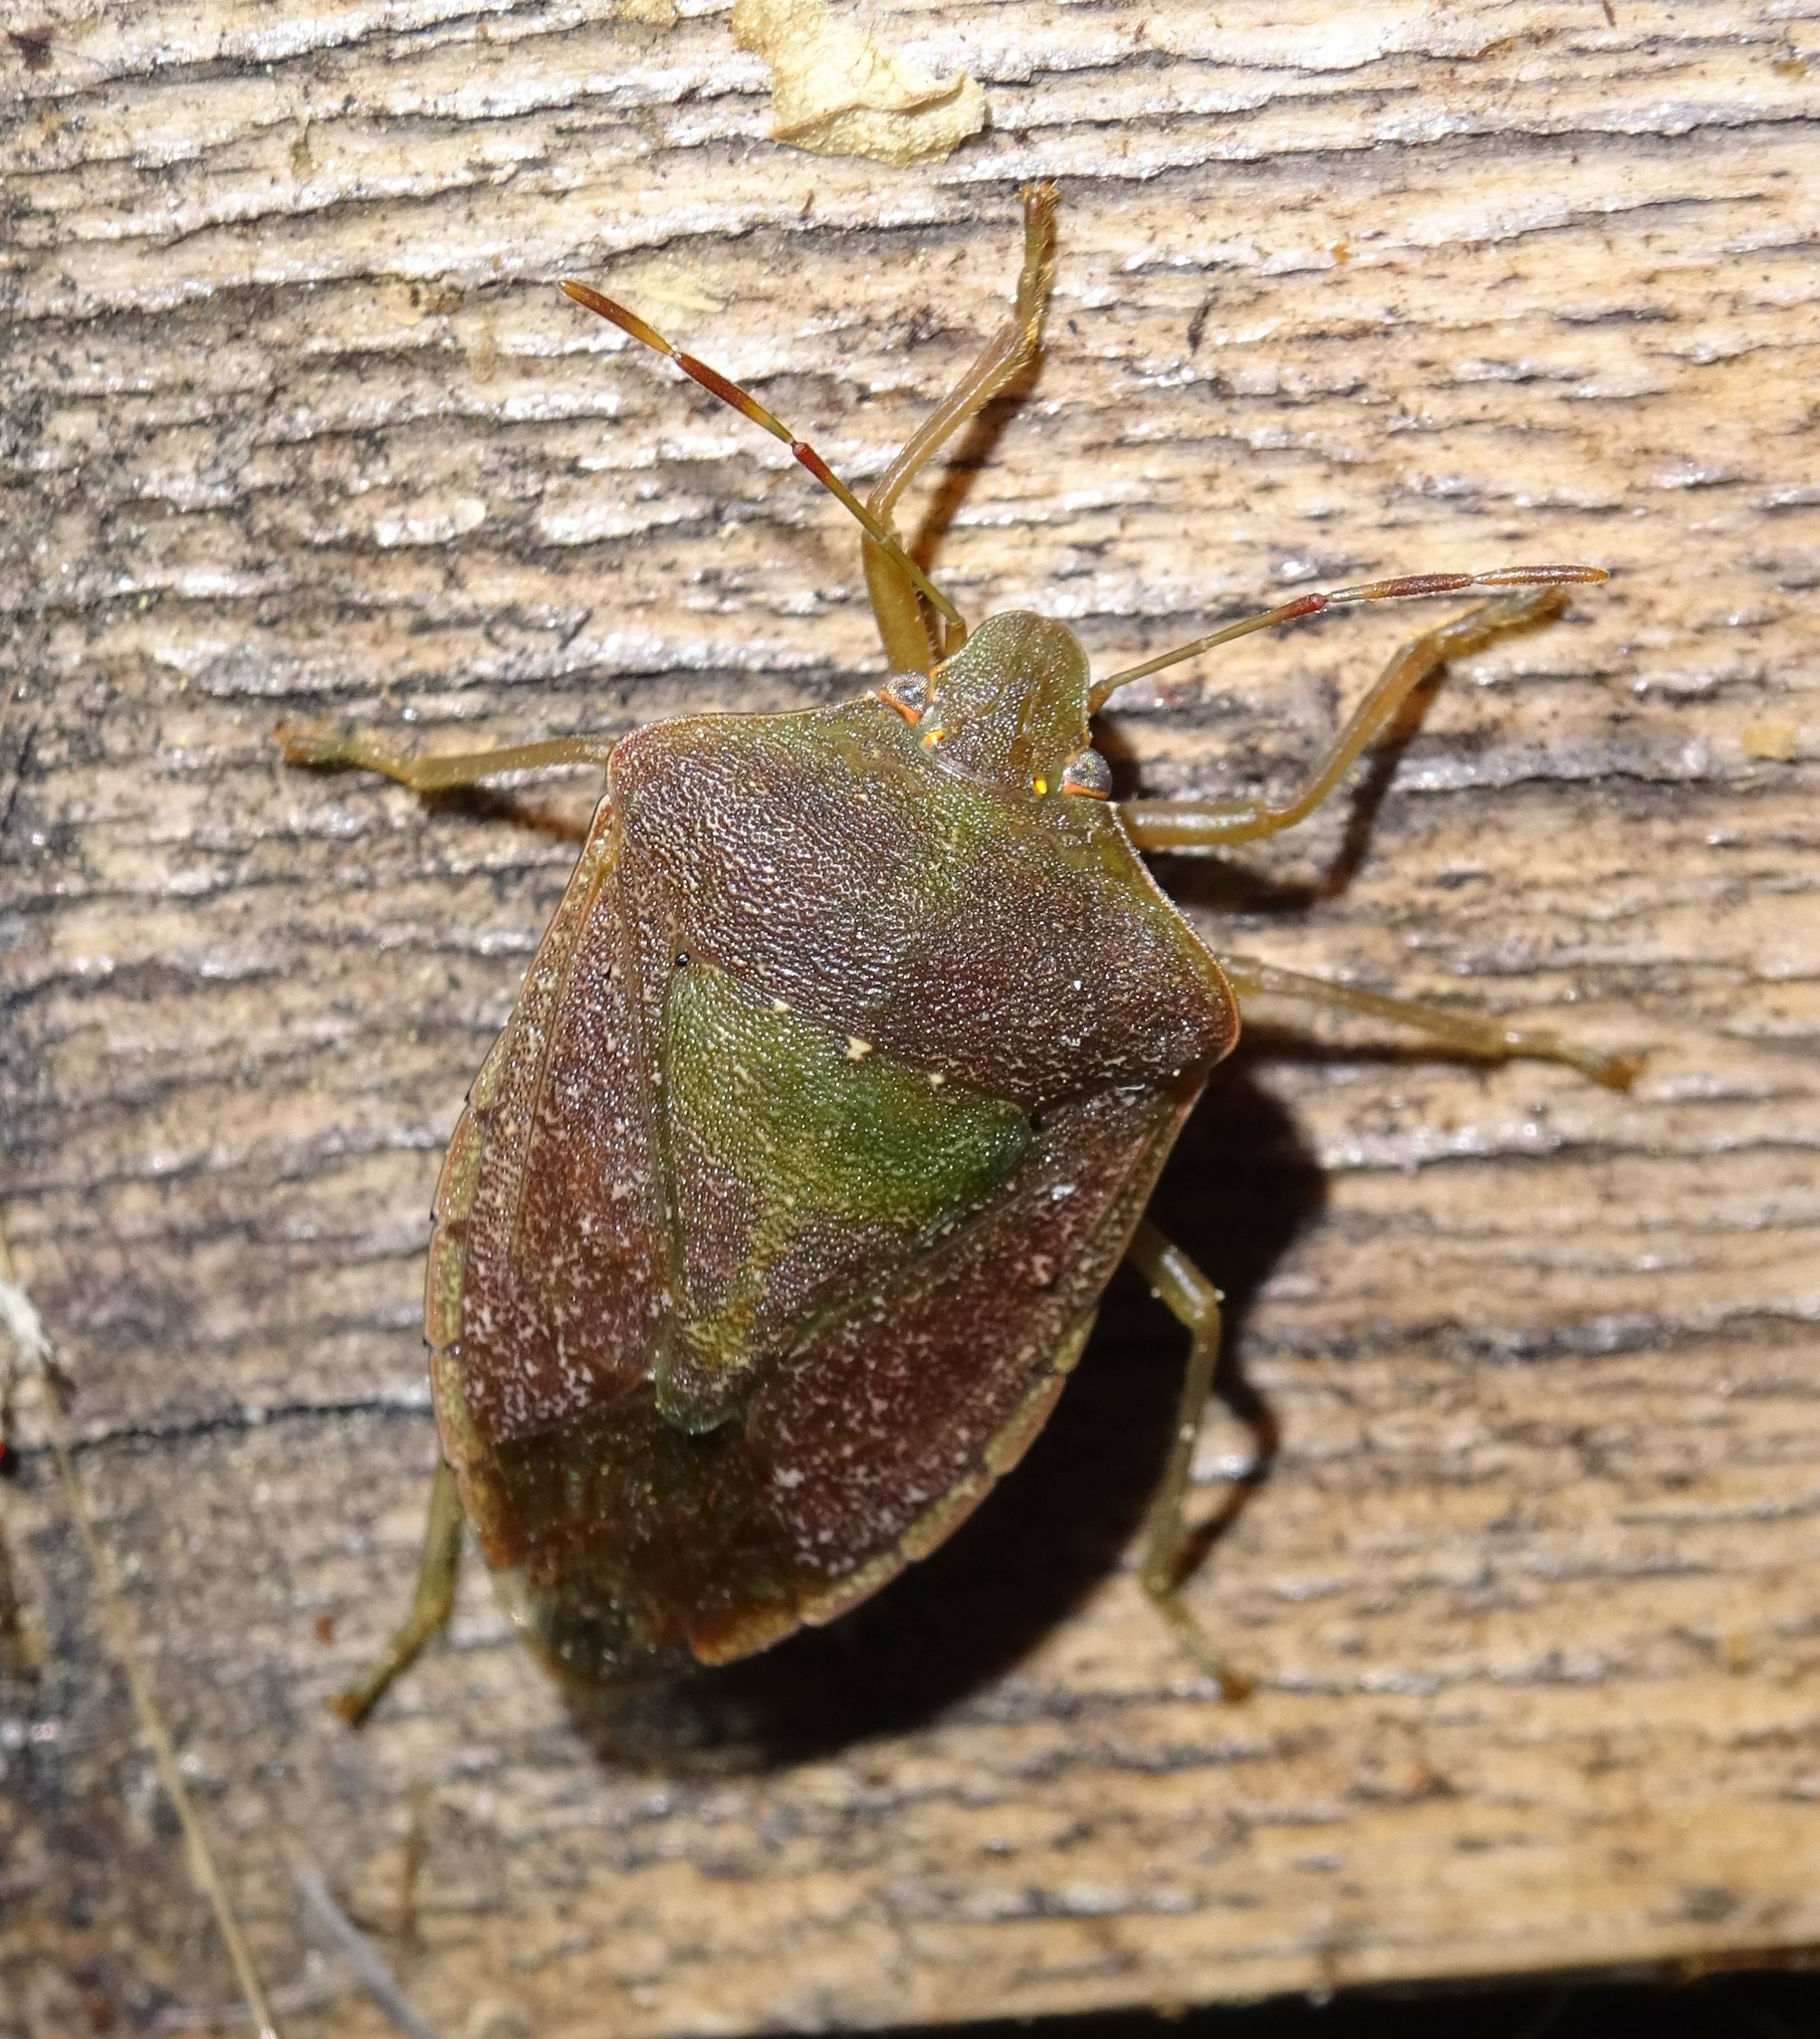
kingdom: Animalia
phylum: Arthropoda
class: Insecta
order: Hemiptera
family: Pentatomidae
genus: Nezara
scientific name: Nezara viridula
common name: Southern green stink bug
